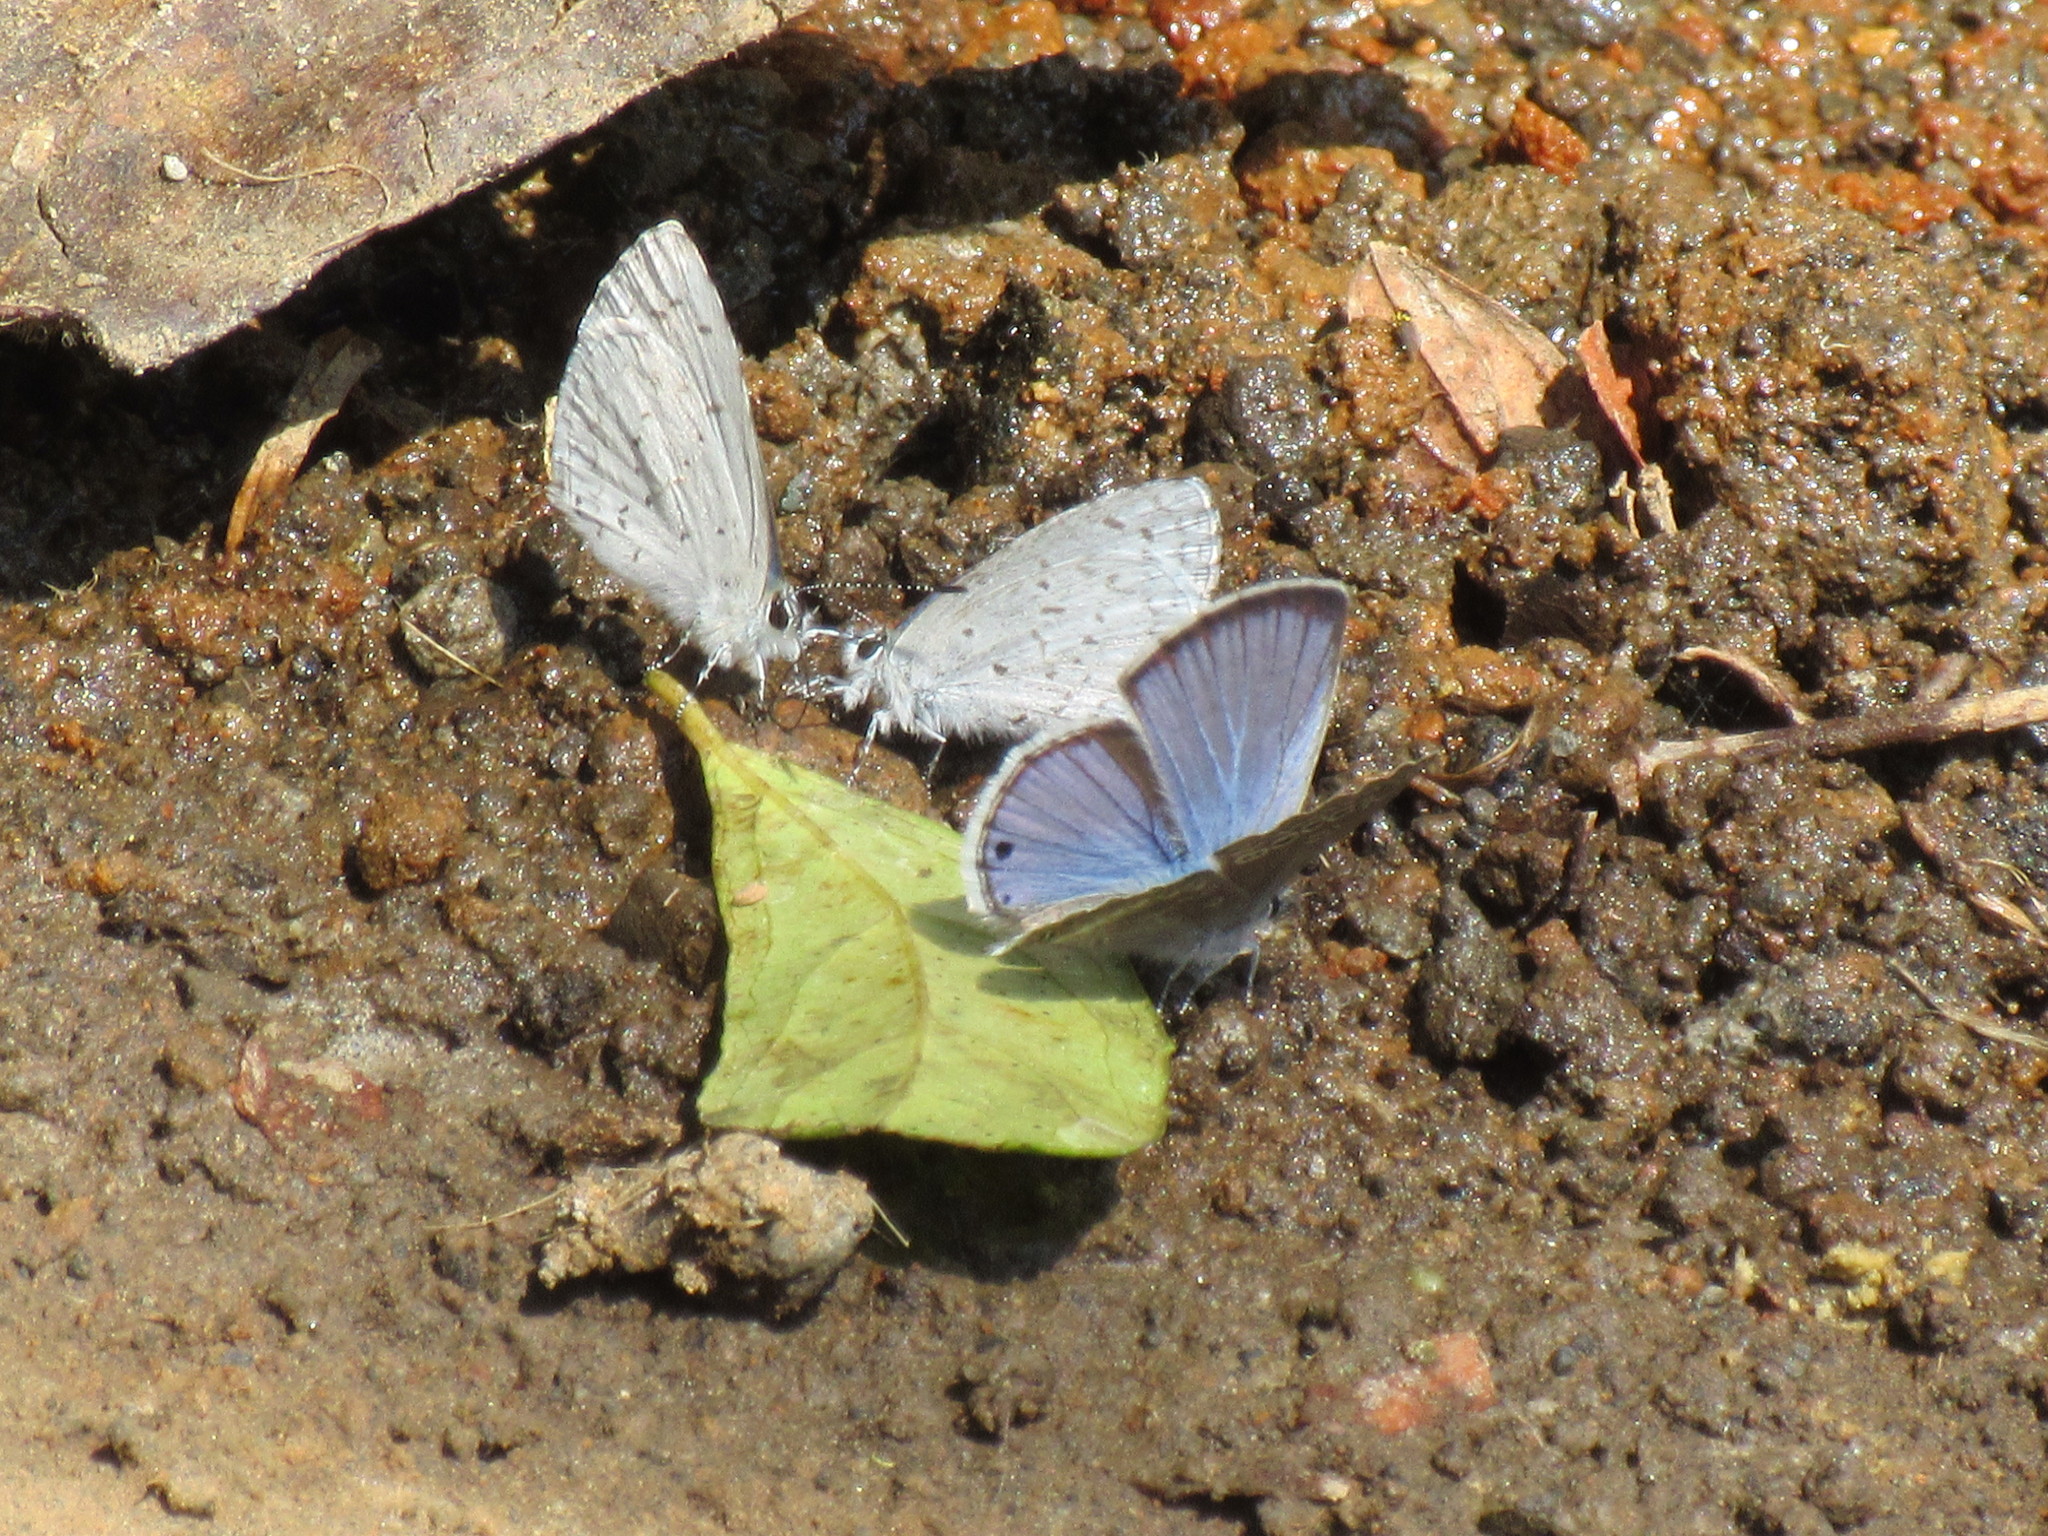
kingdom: Animalia
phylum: Arthropoda
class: Insecta
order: Lepidoptera
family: Lycaenidae
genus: Celastrina
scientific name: Celastrina ladon
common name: Spring azure
